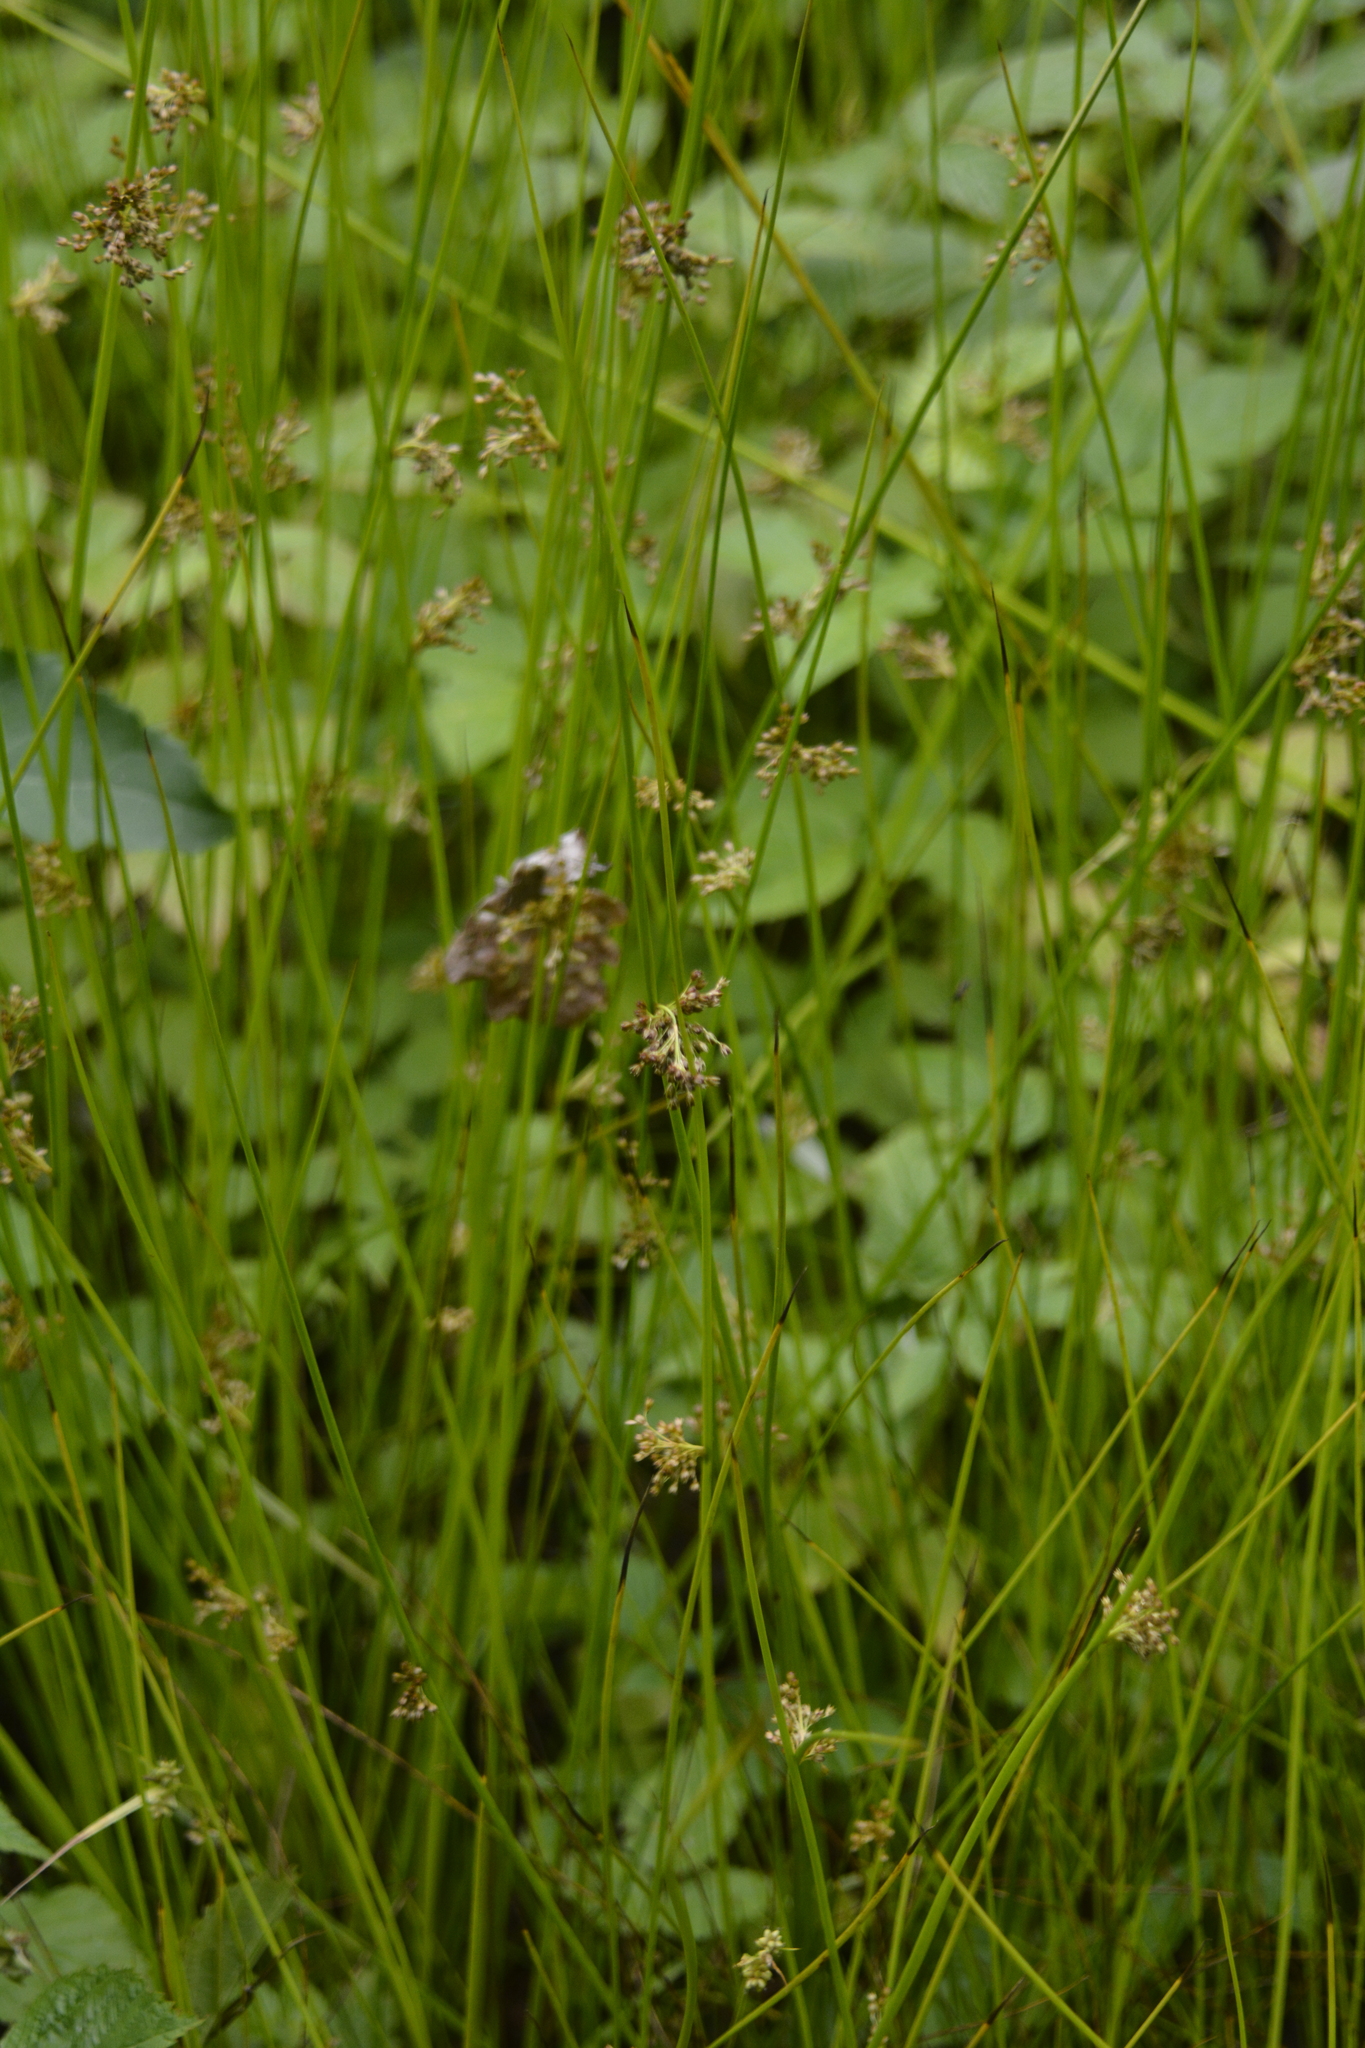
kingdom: Plantae
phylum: Tracheophyta
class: Liliopsida
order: Poales
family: Juncaceae
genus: Juncus
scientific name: Juncus effusus
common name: Soft rush
